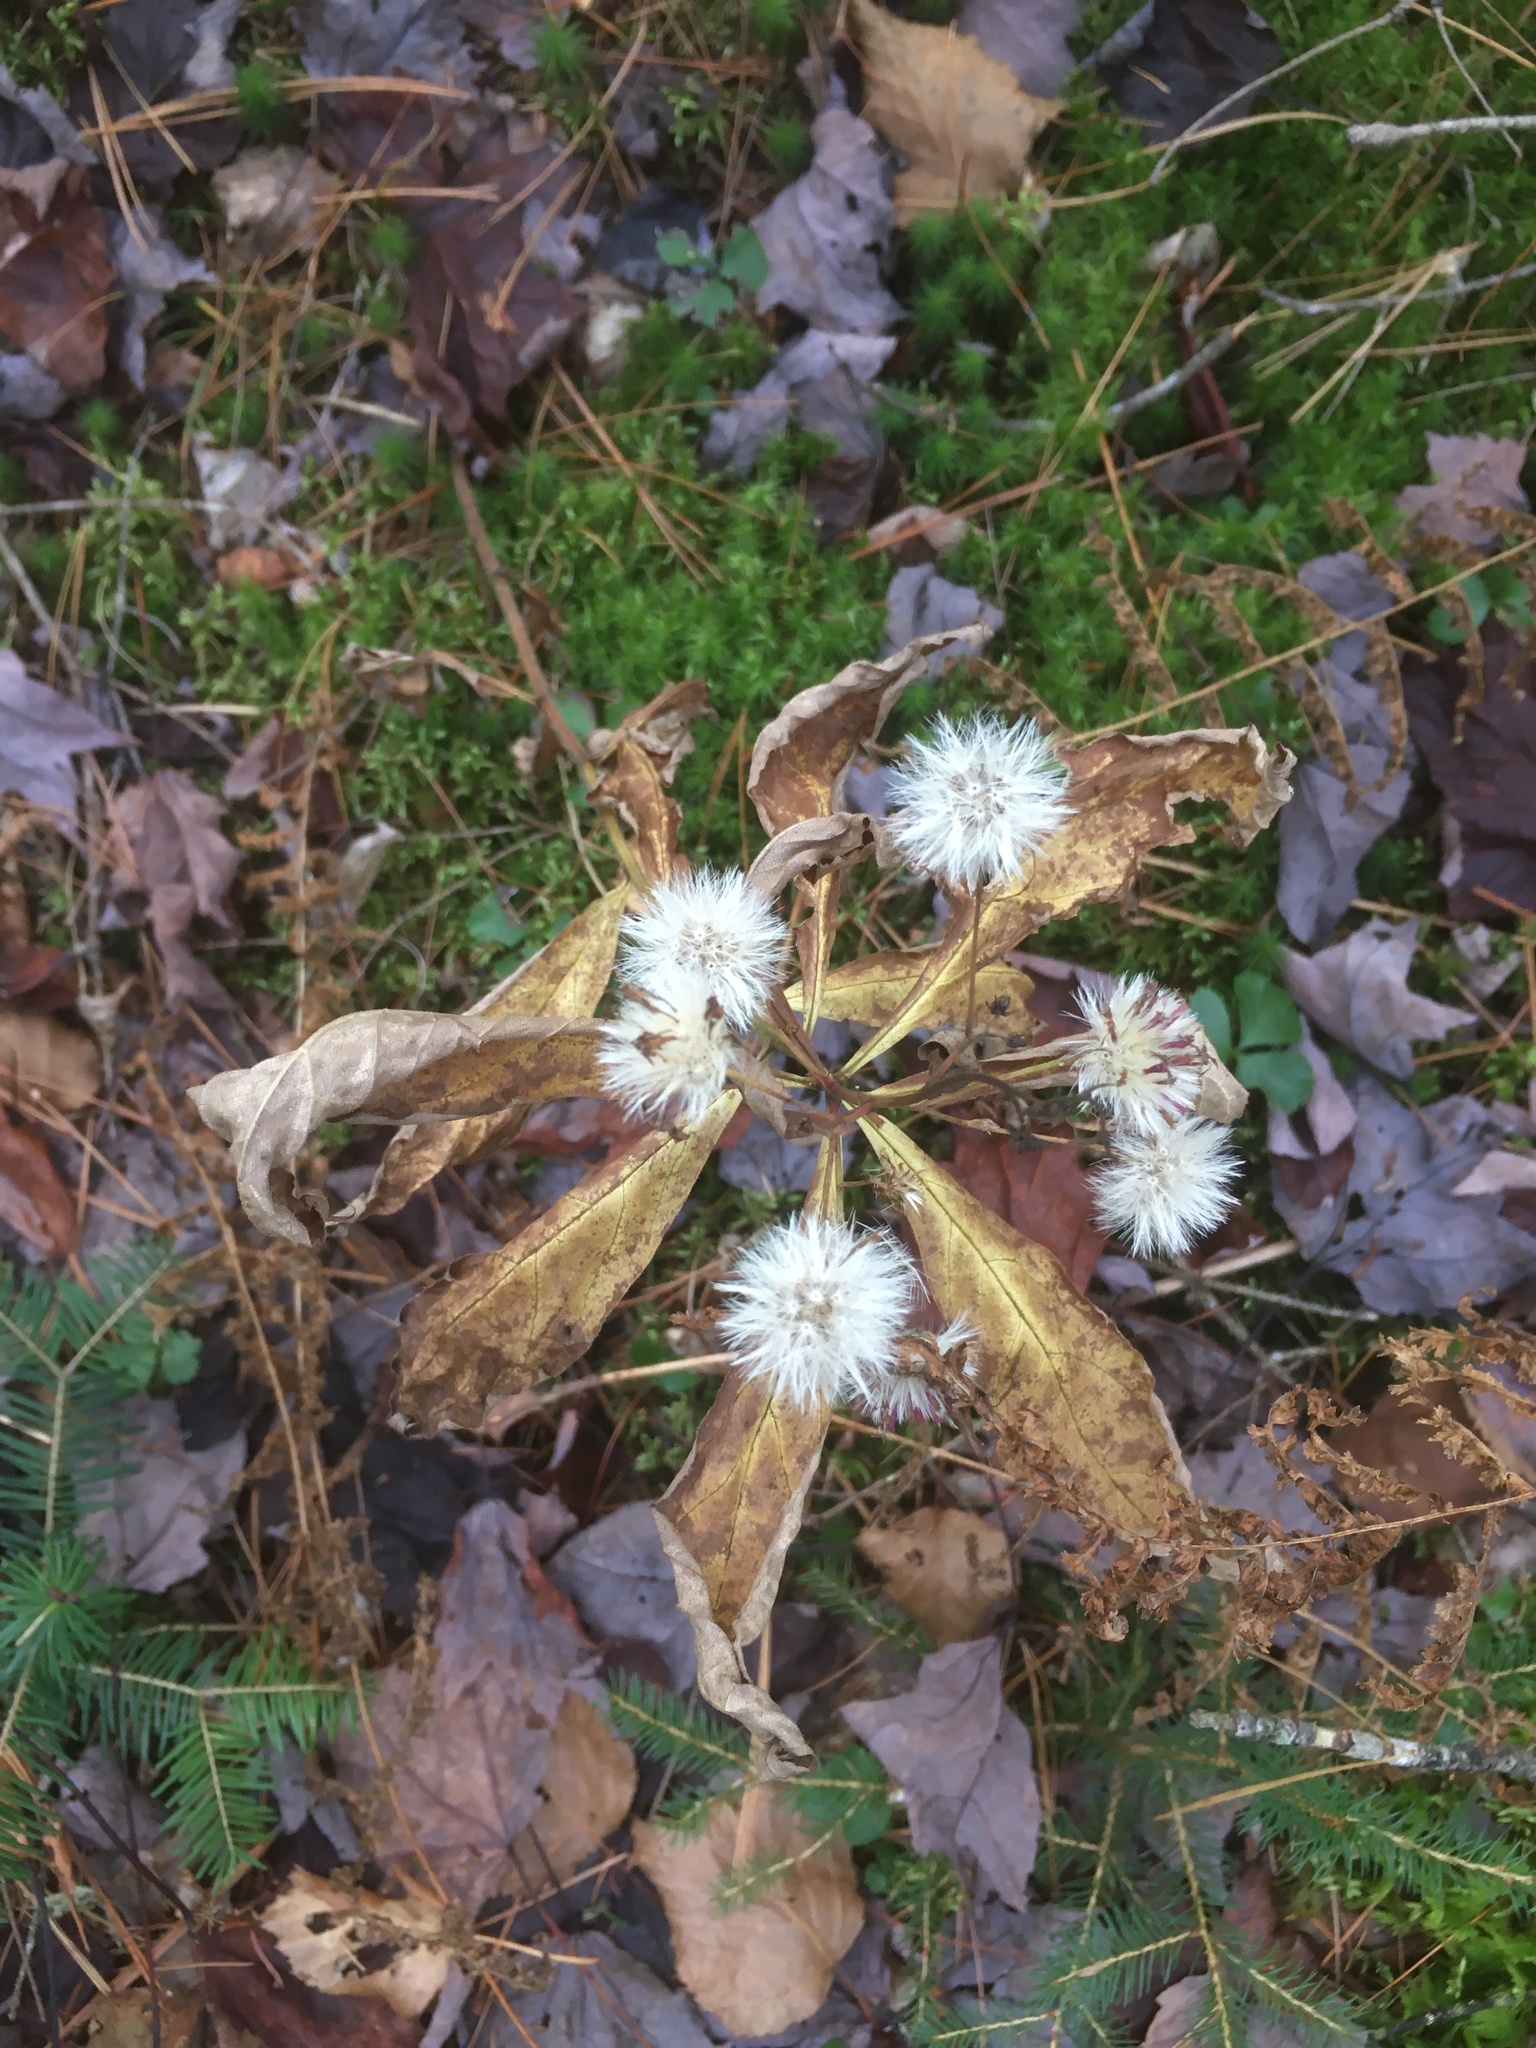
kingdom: Plantae
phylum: Tracheophyta
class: Magnoliopsida
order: Asterales
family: Asteraceae
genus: Oclemena
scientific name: Oclemena acuminata
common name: Mountain aster
